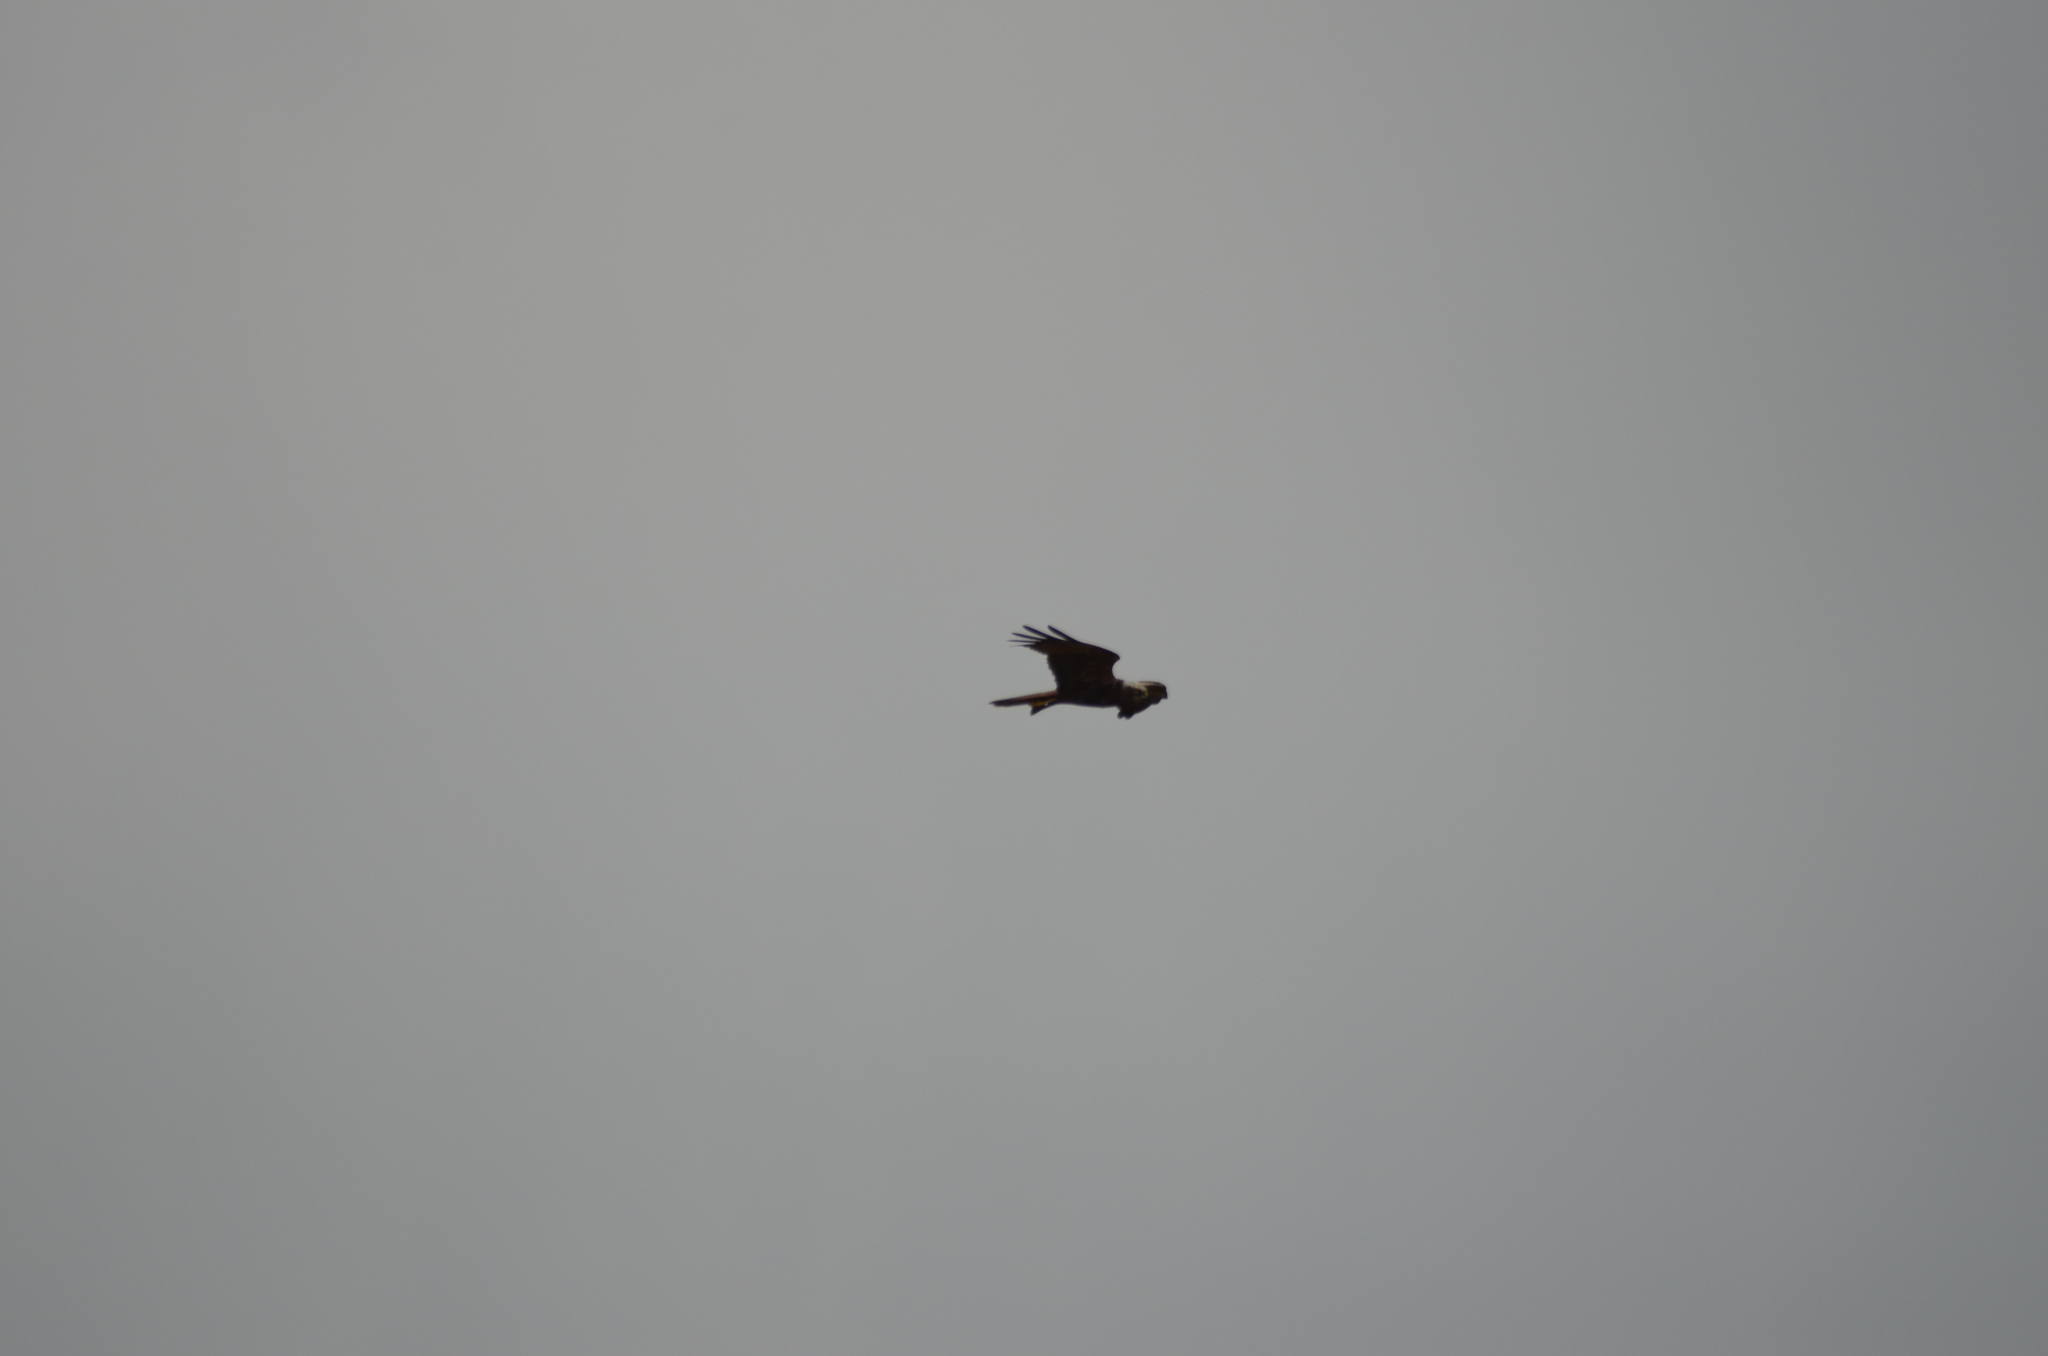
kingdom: Animalia
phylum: Chordata
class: Aves
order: Accipitriformes
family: Accipitridae
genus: Circus
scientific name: Circus aeruginosus
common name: Western marsh harrier
